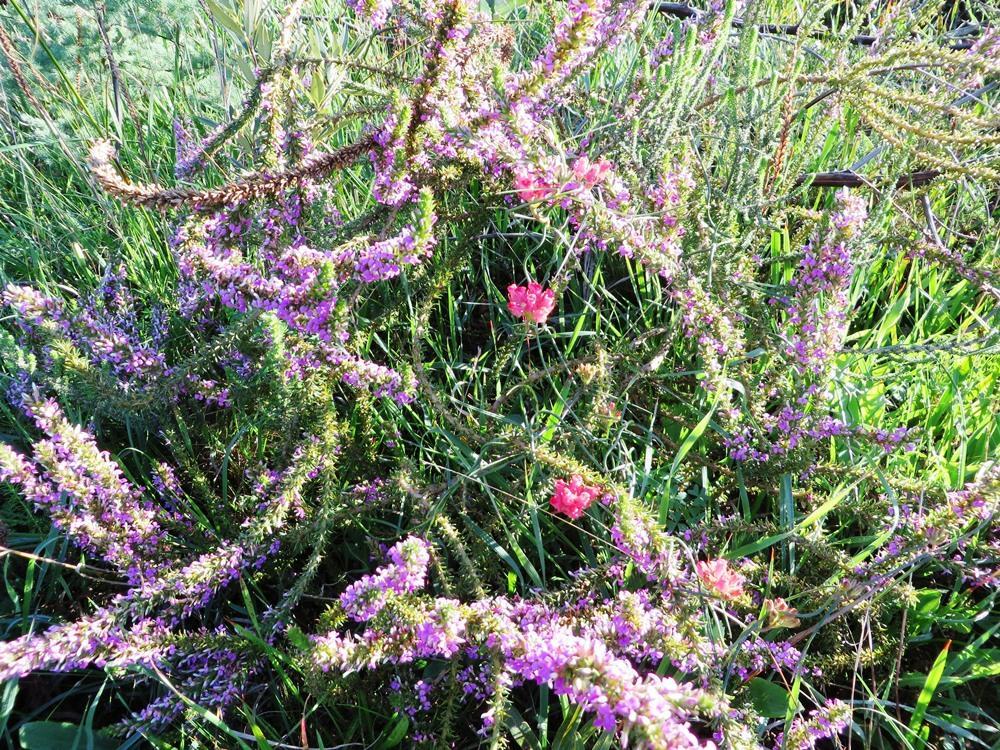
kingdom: Plantae
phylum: Tracheophyta
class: Magnoliopsida
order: Gentianales
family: Apocynaceae
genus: Microloma
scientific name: Microloma tenuifolium
